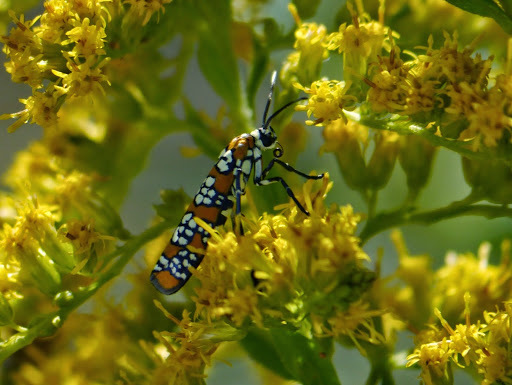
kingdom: Animalia
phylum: Arthropoda
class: Insecta
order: Lepidoptera
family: Attevidae
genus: Atteva
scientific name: Atteva punctella
